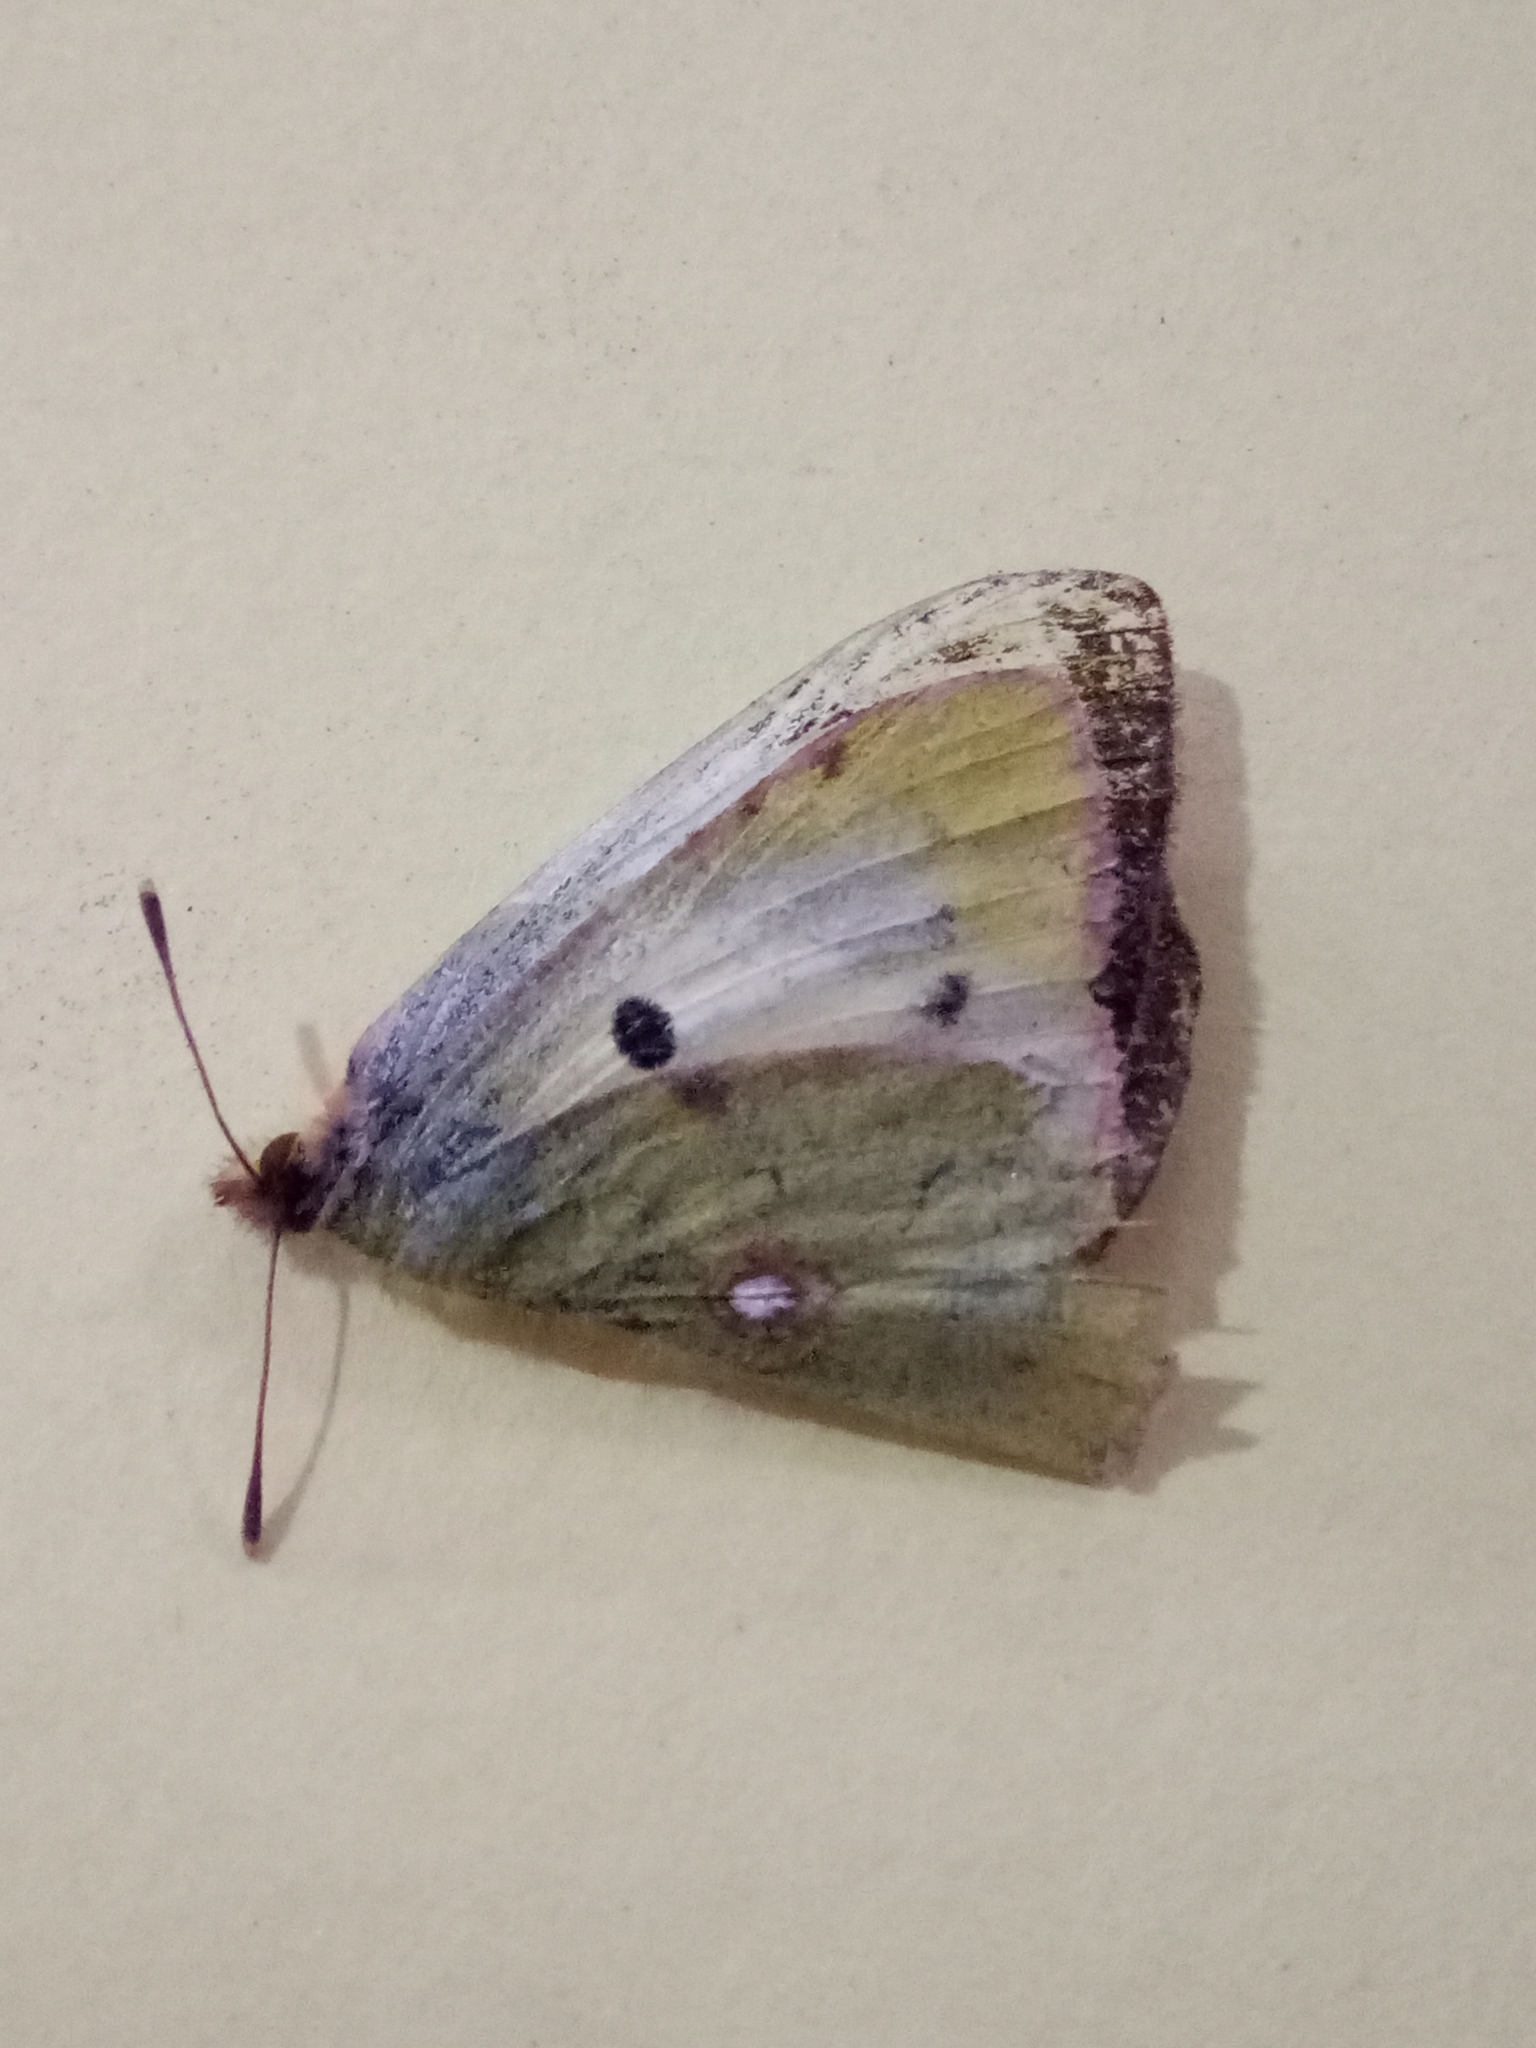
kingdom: Animalia
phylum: Arthropoda
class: Insecta
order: Lepidoptera
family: Pieridae
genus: Colias
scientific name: Colias croceus
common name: Clouded yellow
